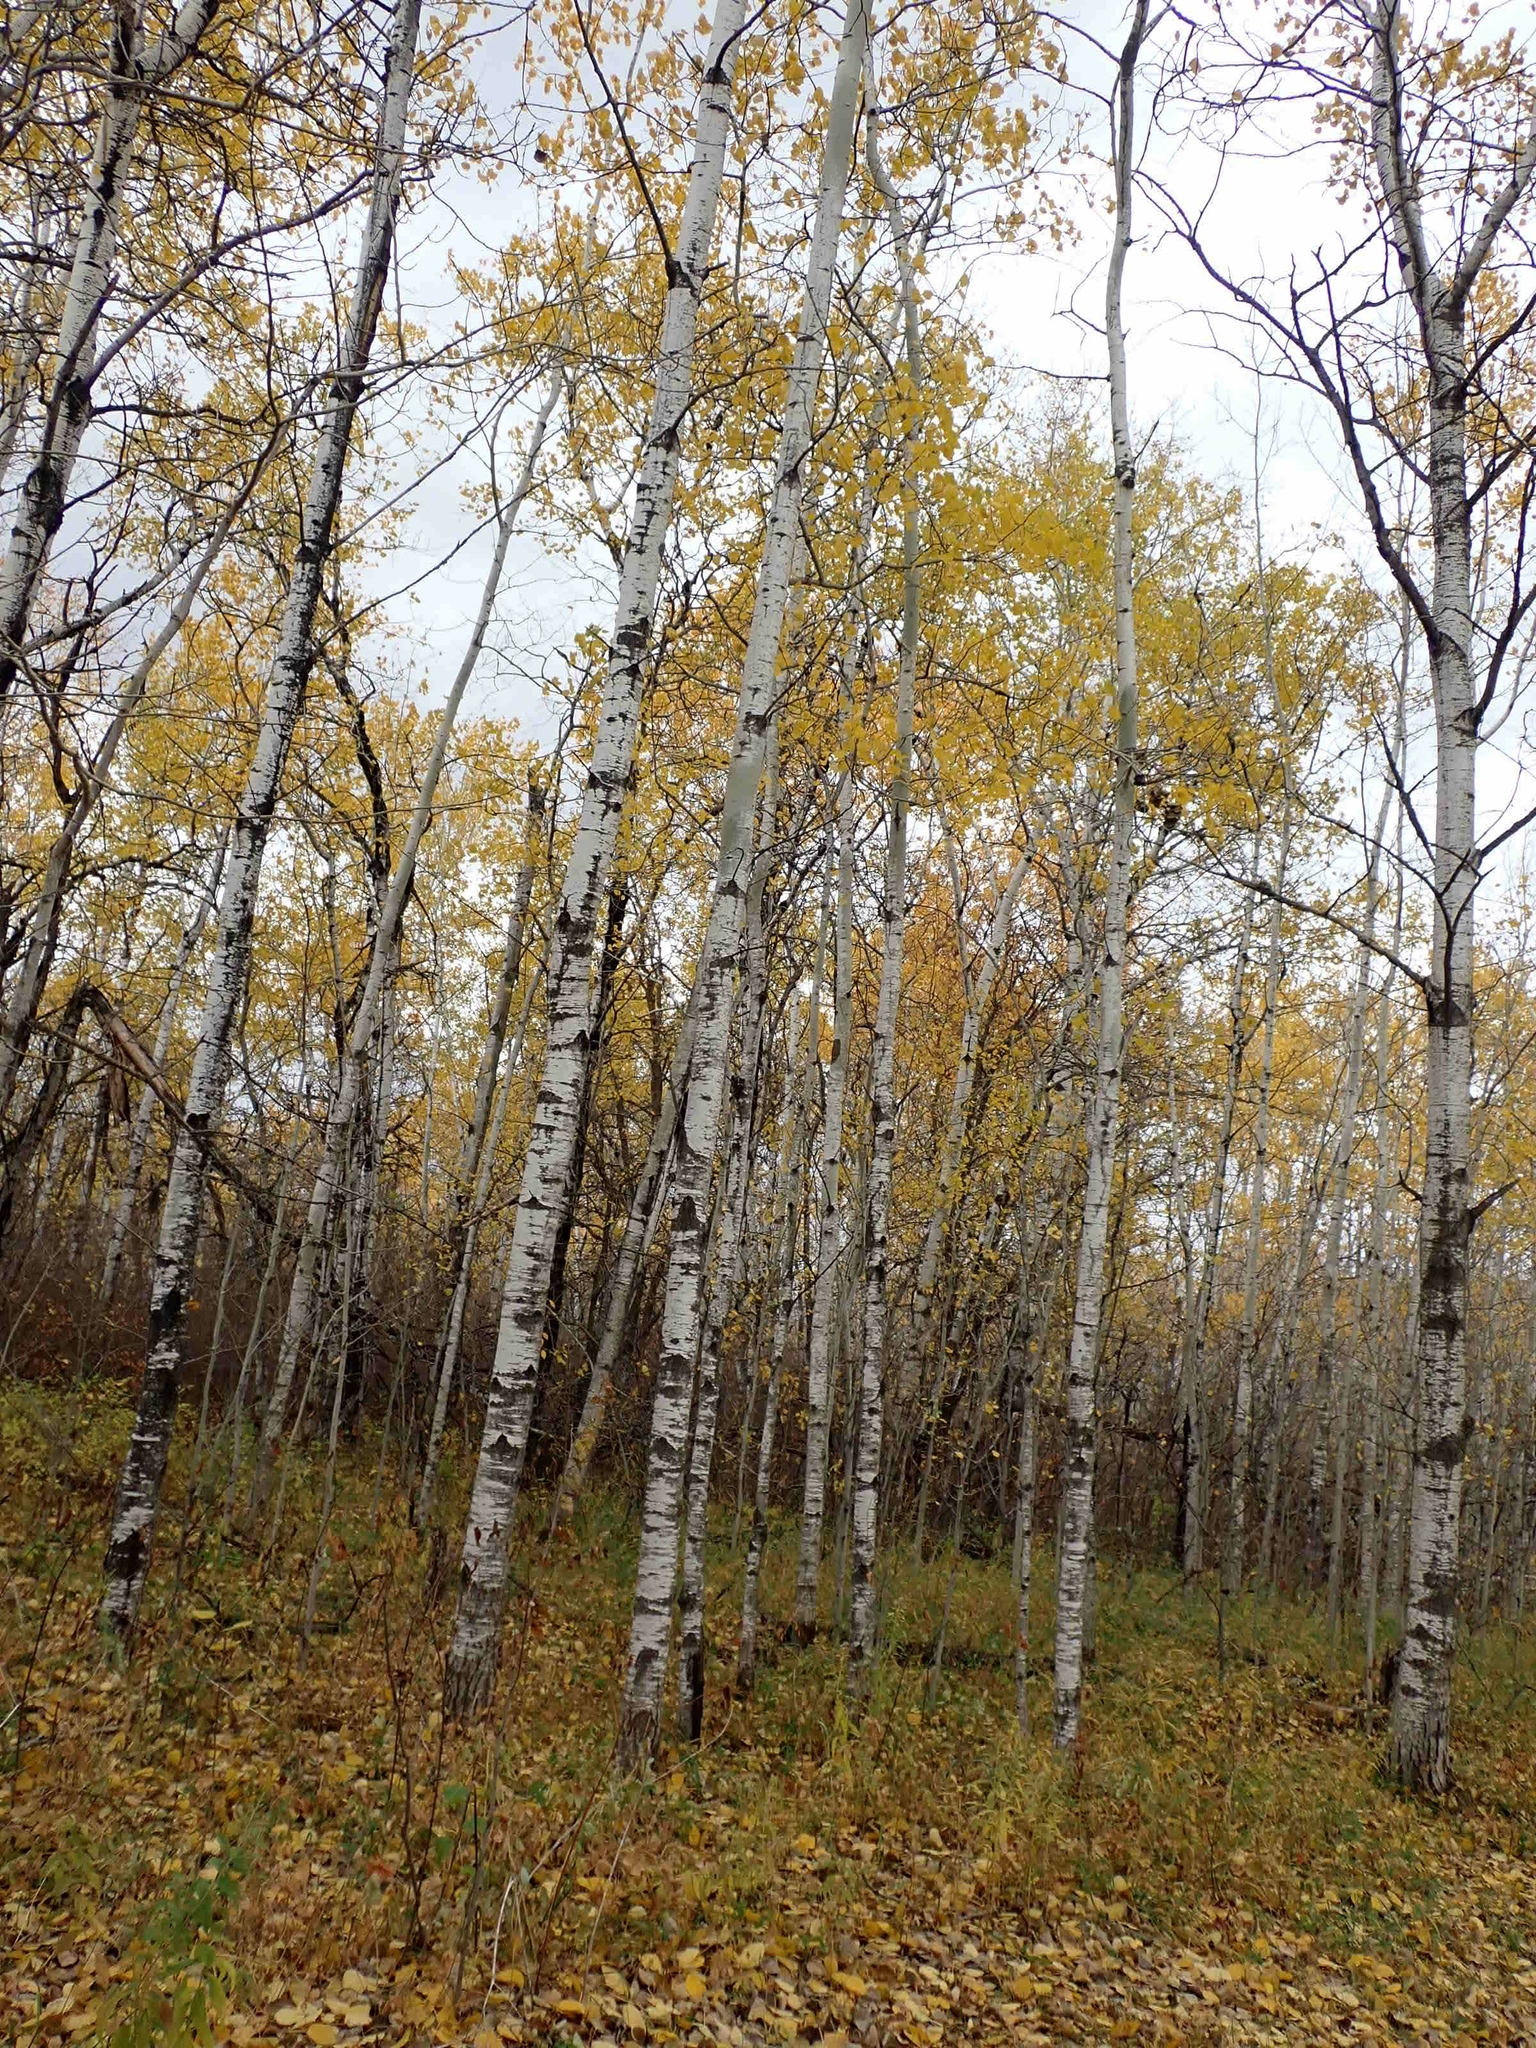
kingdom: Plantae
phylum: Tracheophyta
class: Magnoliopsida
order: Malpighiales
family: Salicaceae
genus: Populus
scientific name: Populus tremuloides
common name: Quaking aspen
